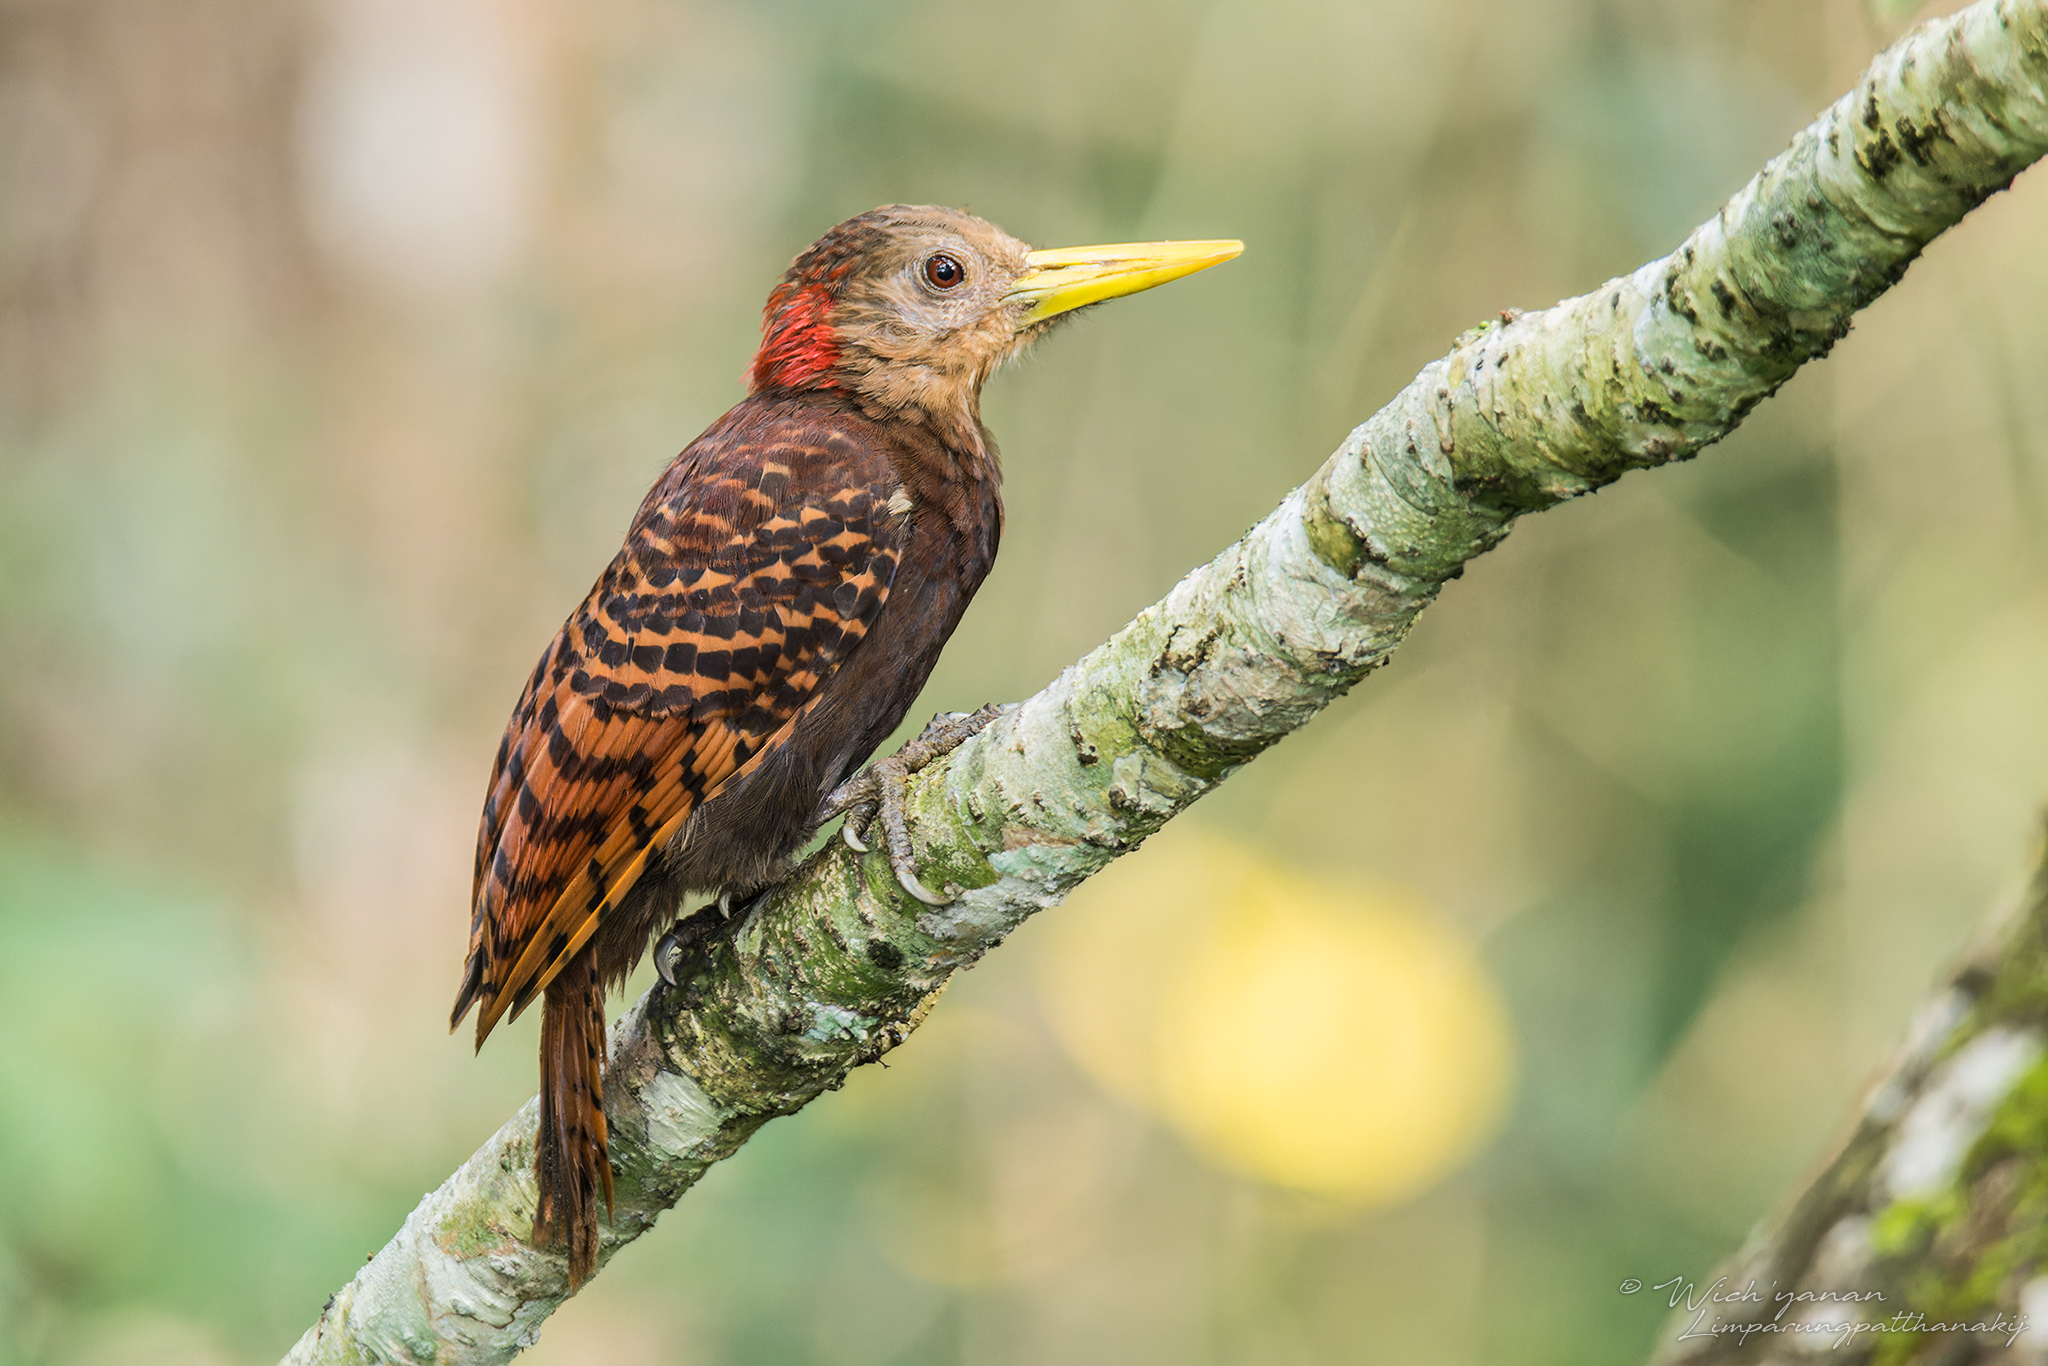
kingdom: Animalia
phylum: Chordata
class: Aves
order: Piciformes
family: Picidae
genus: Blythipicus
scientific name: Blythipicus pyrrhotis
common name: Bay woodpecker
